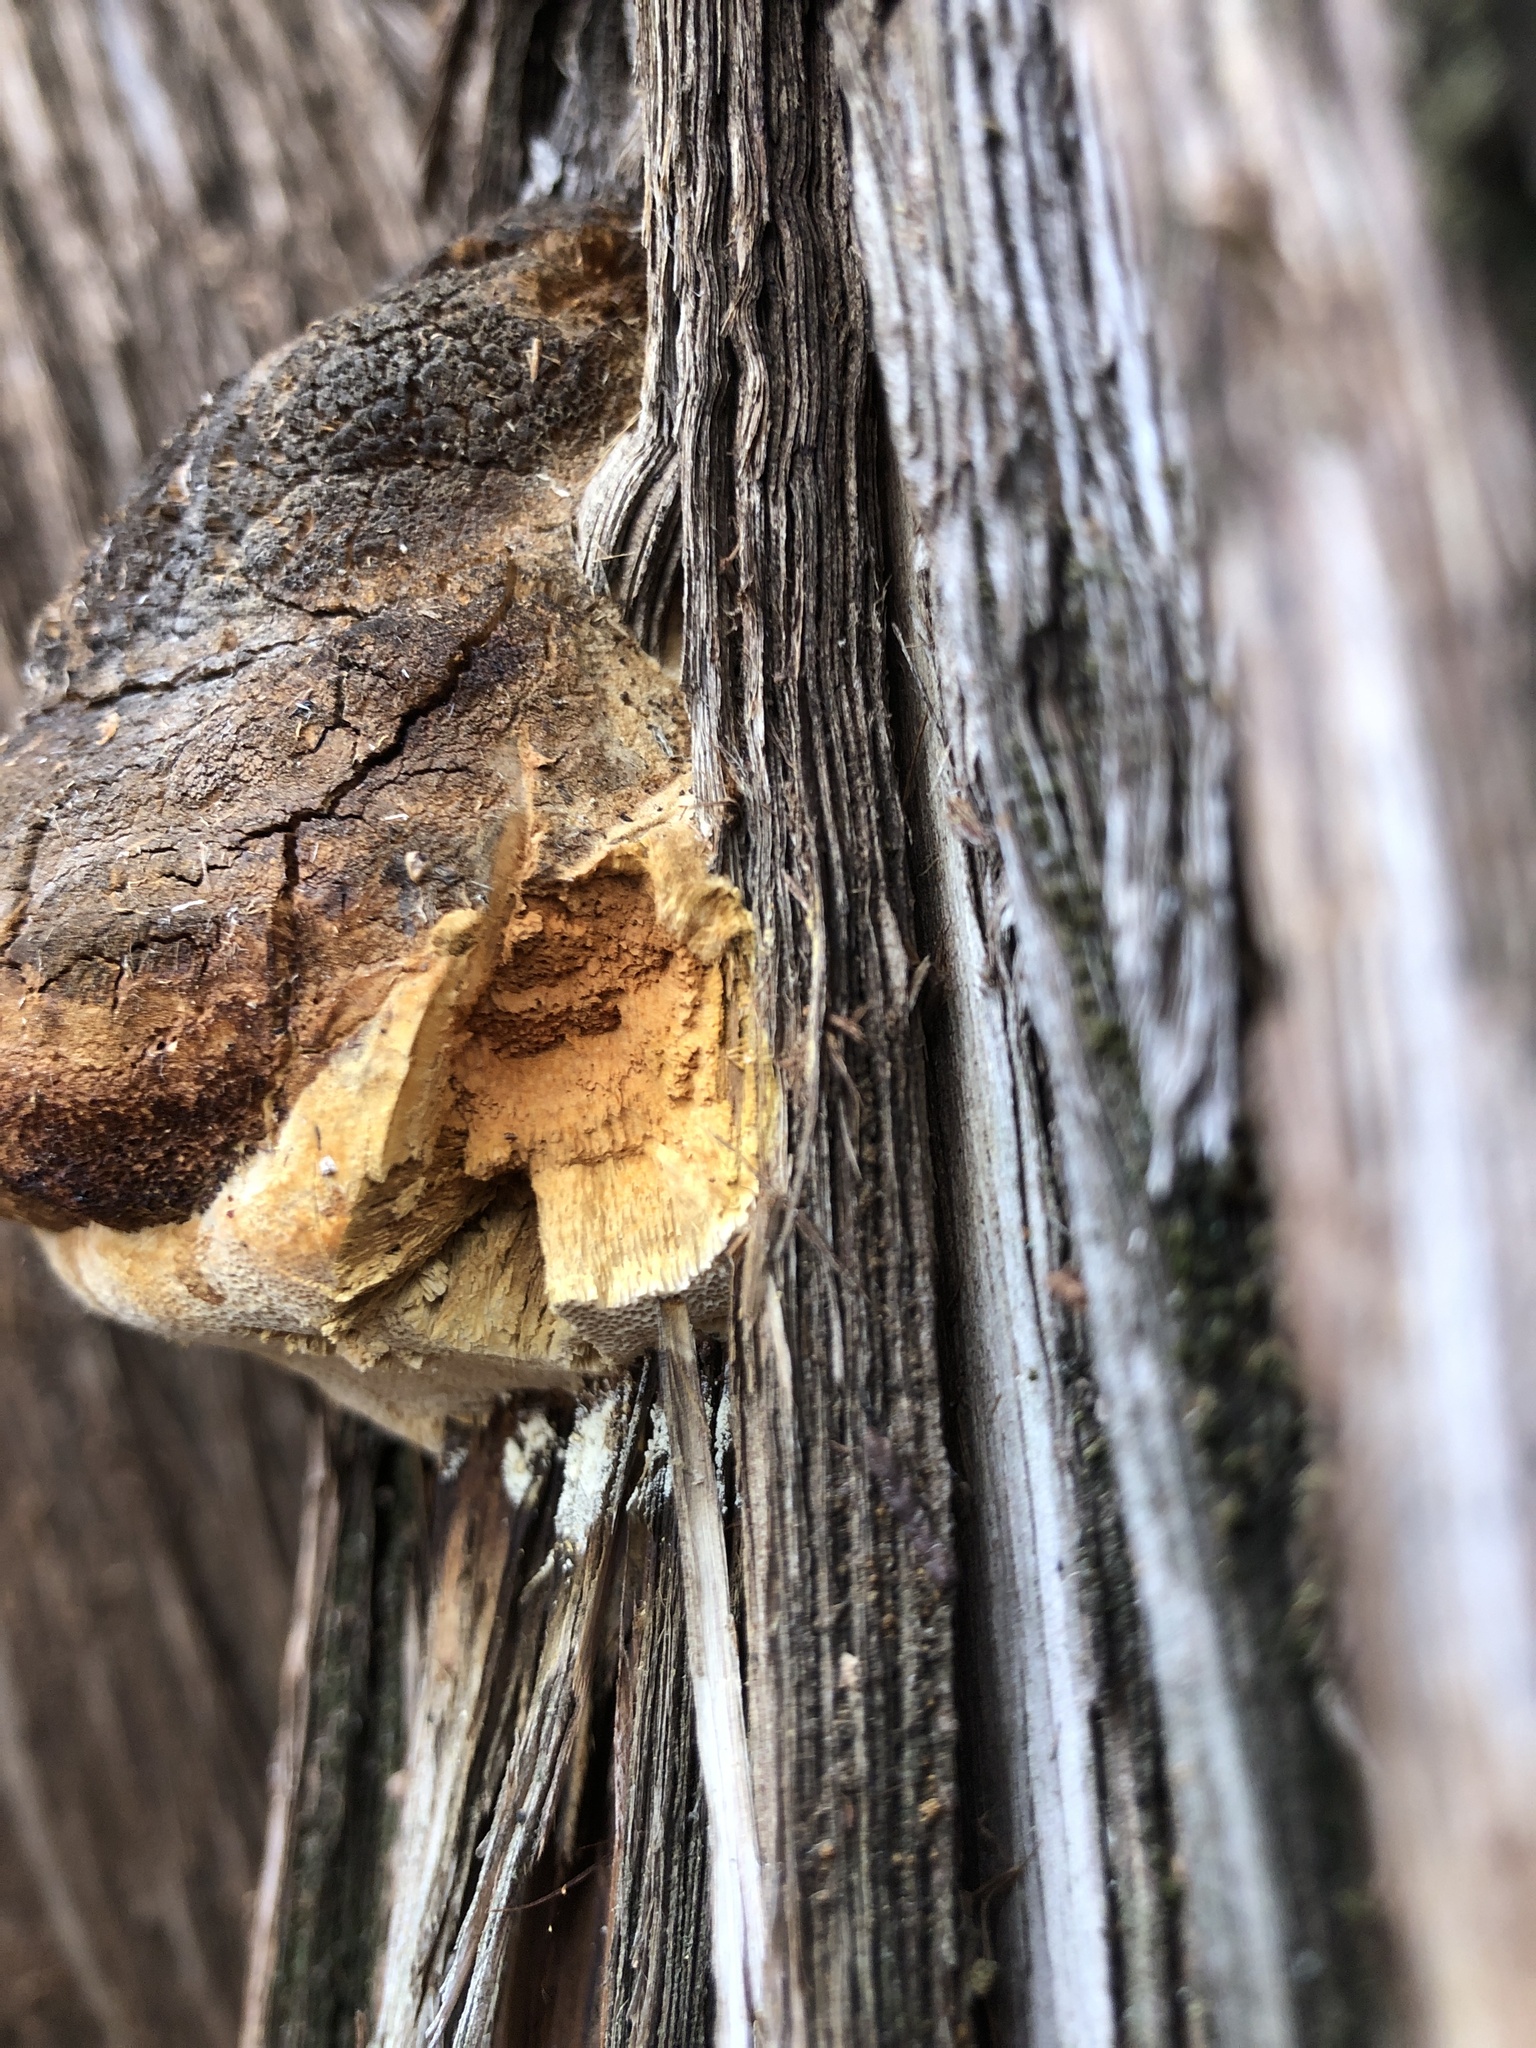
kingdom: Fungi
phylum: Basidiomycota
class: Agaricomycetes
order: Polyporales
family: Polyporaceae
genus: Pyrofomes
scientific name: Pyrofomes juniperinus
